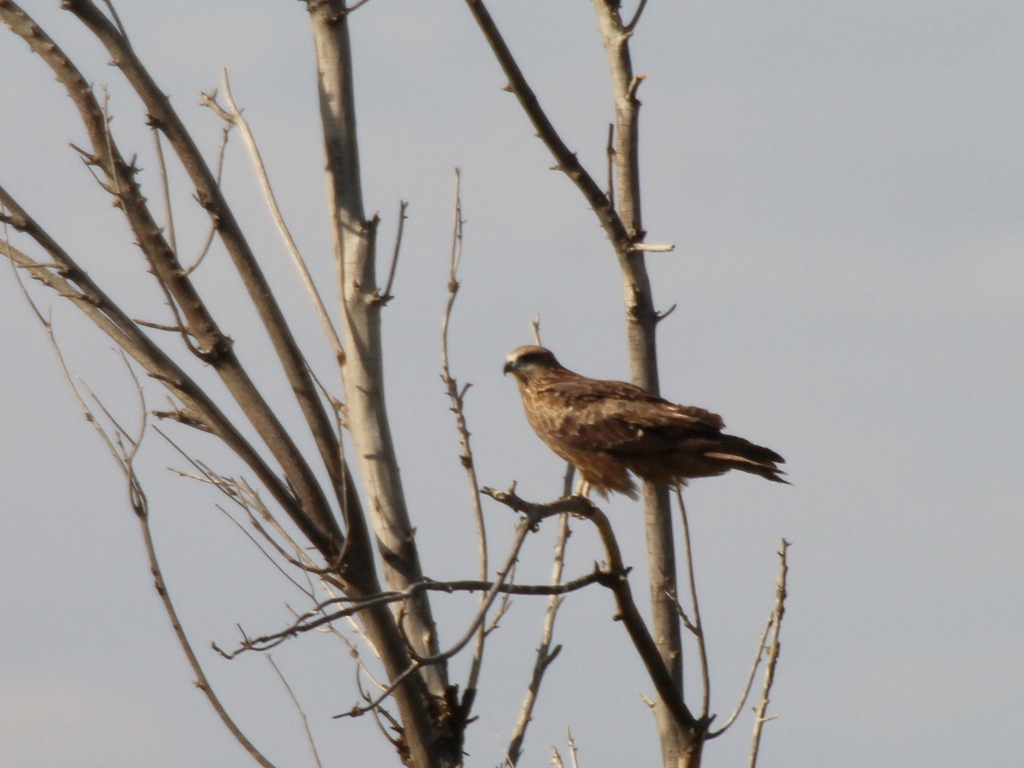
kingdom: Animalia
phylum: Chordata
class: Aves
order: Accipitriformes
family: Accipitridae
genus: Milvus
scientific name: Milvus migrans
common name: Black kite
